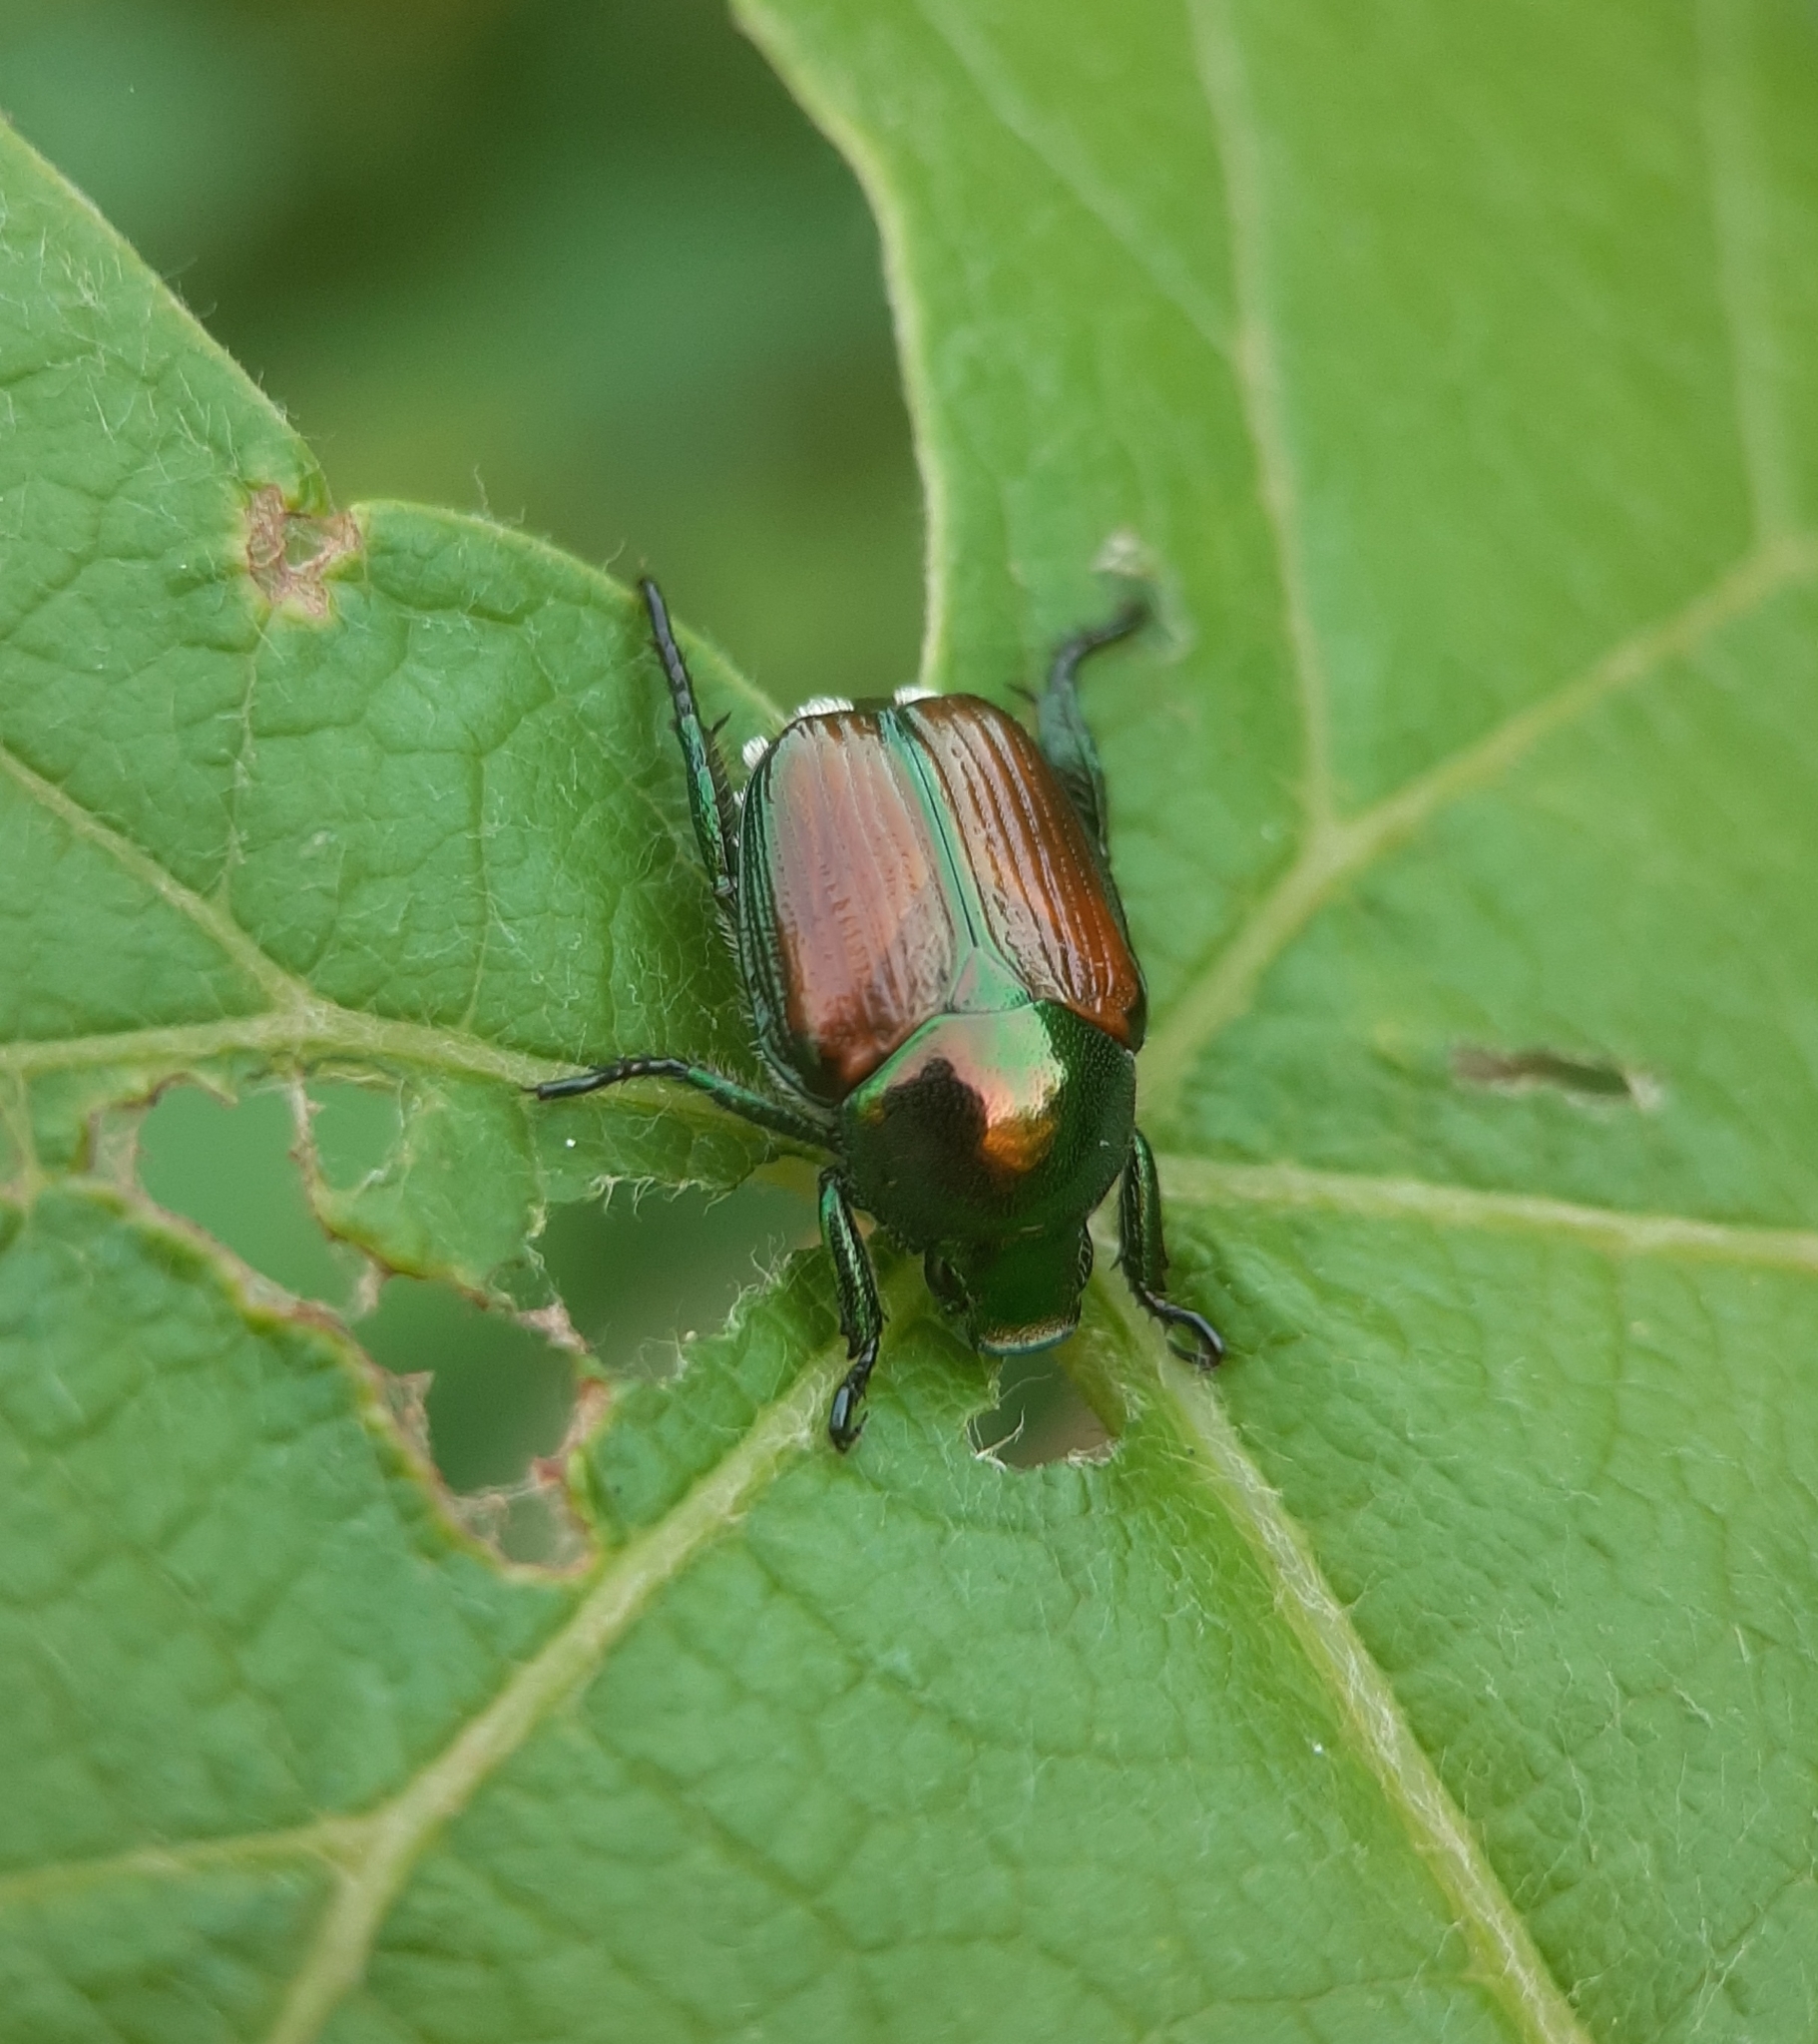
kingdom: Animalia
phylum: Arthropoda
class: Insecta
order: Coleoptera
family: Scarabaeidae
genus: Popillia
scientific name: Popillia japonica
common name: Japanese beetle
